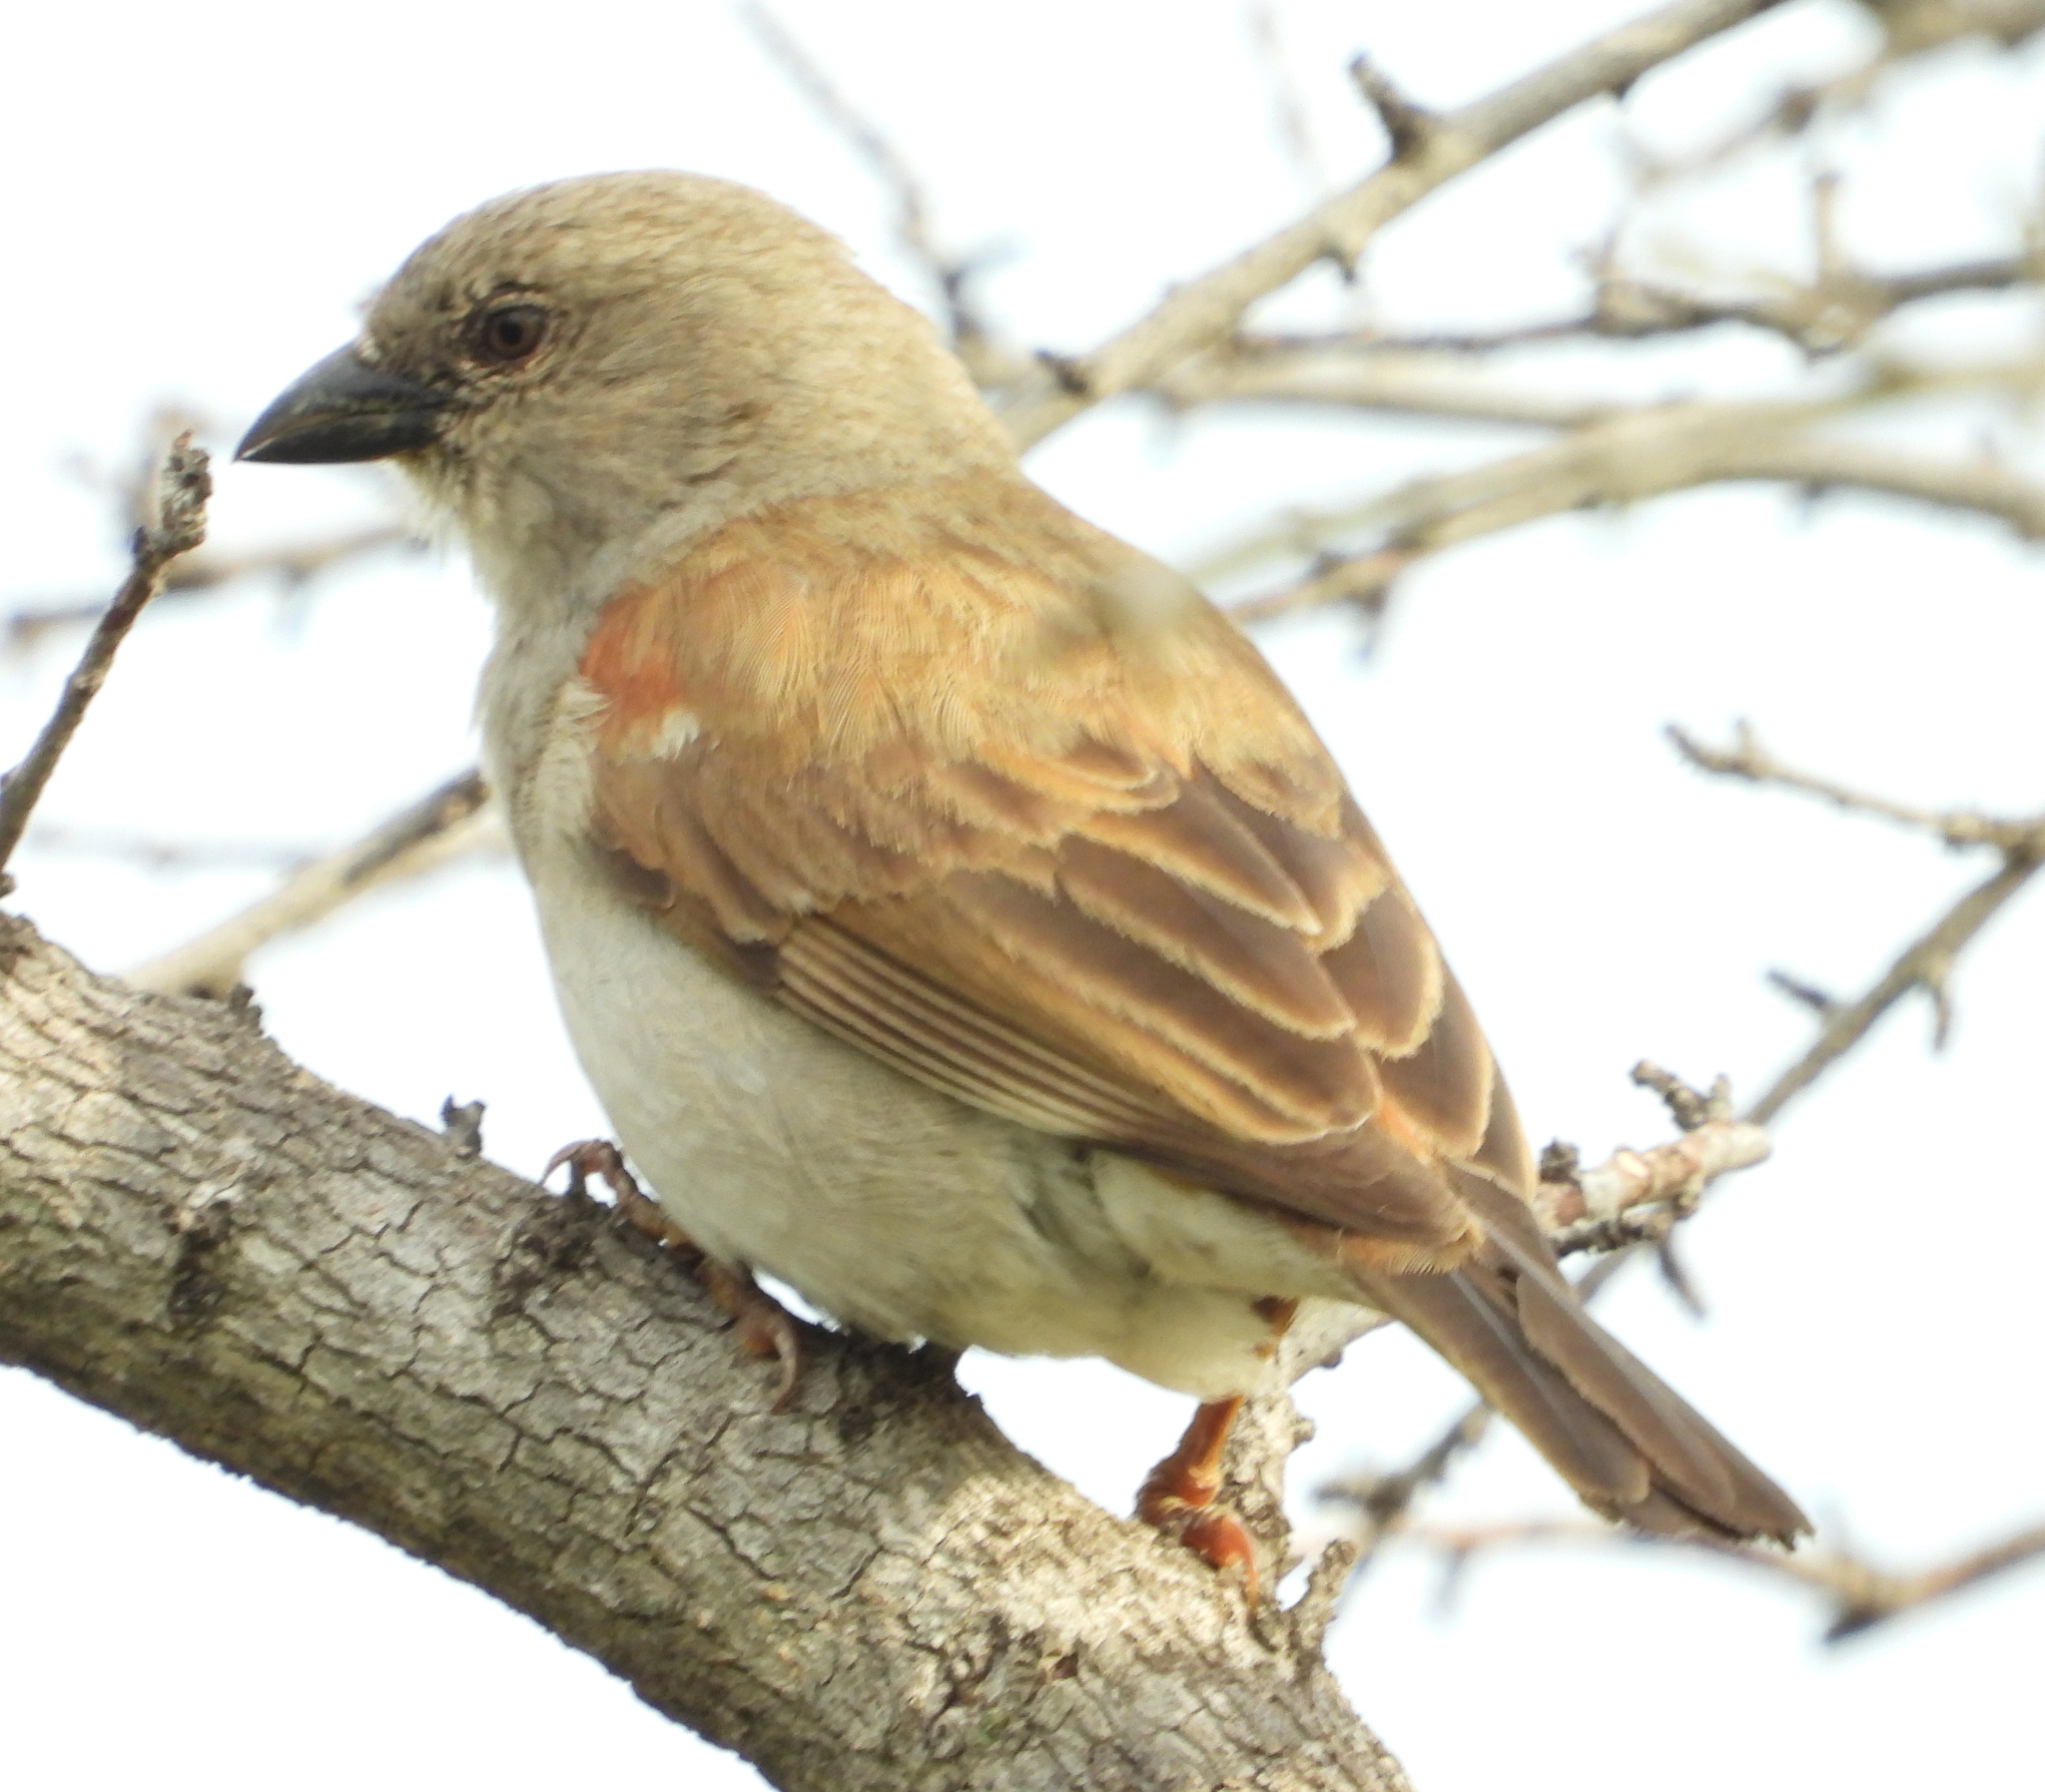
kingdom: Animalia
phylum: Chordata
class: Aves
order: Passeriformes
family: Passeridae
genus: Passer
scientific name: Passer diffusus
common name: Southern grey-headed sparrow
